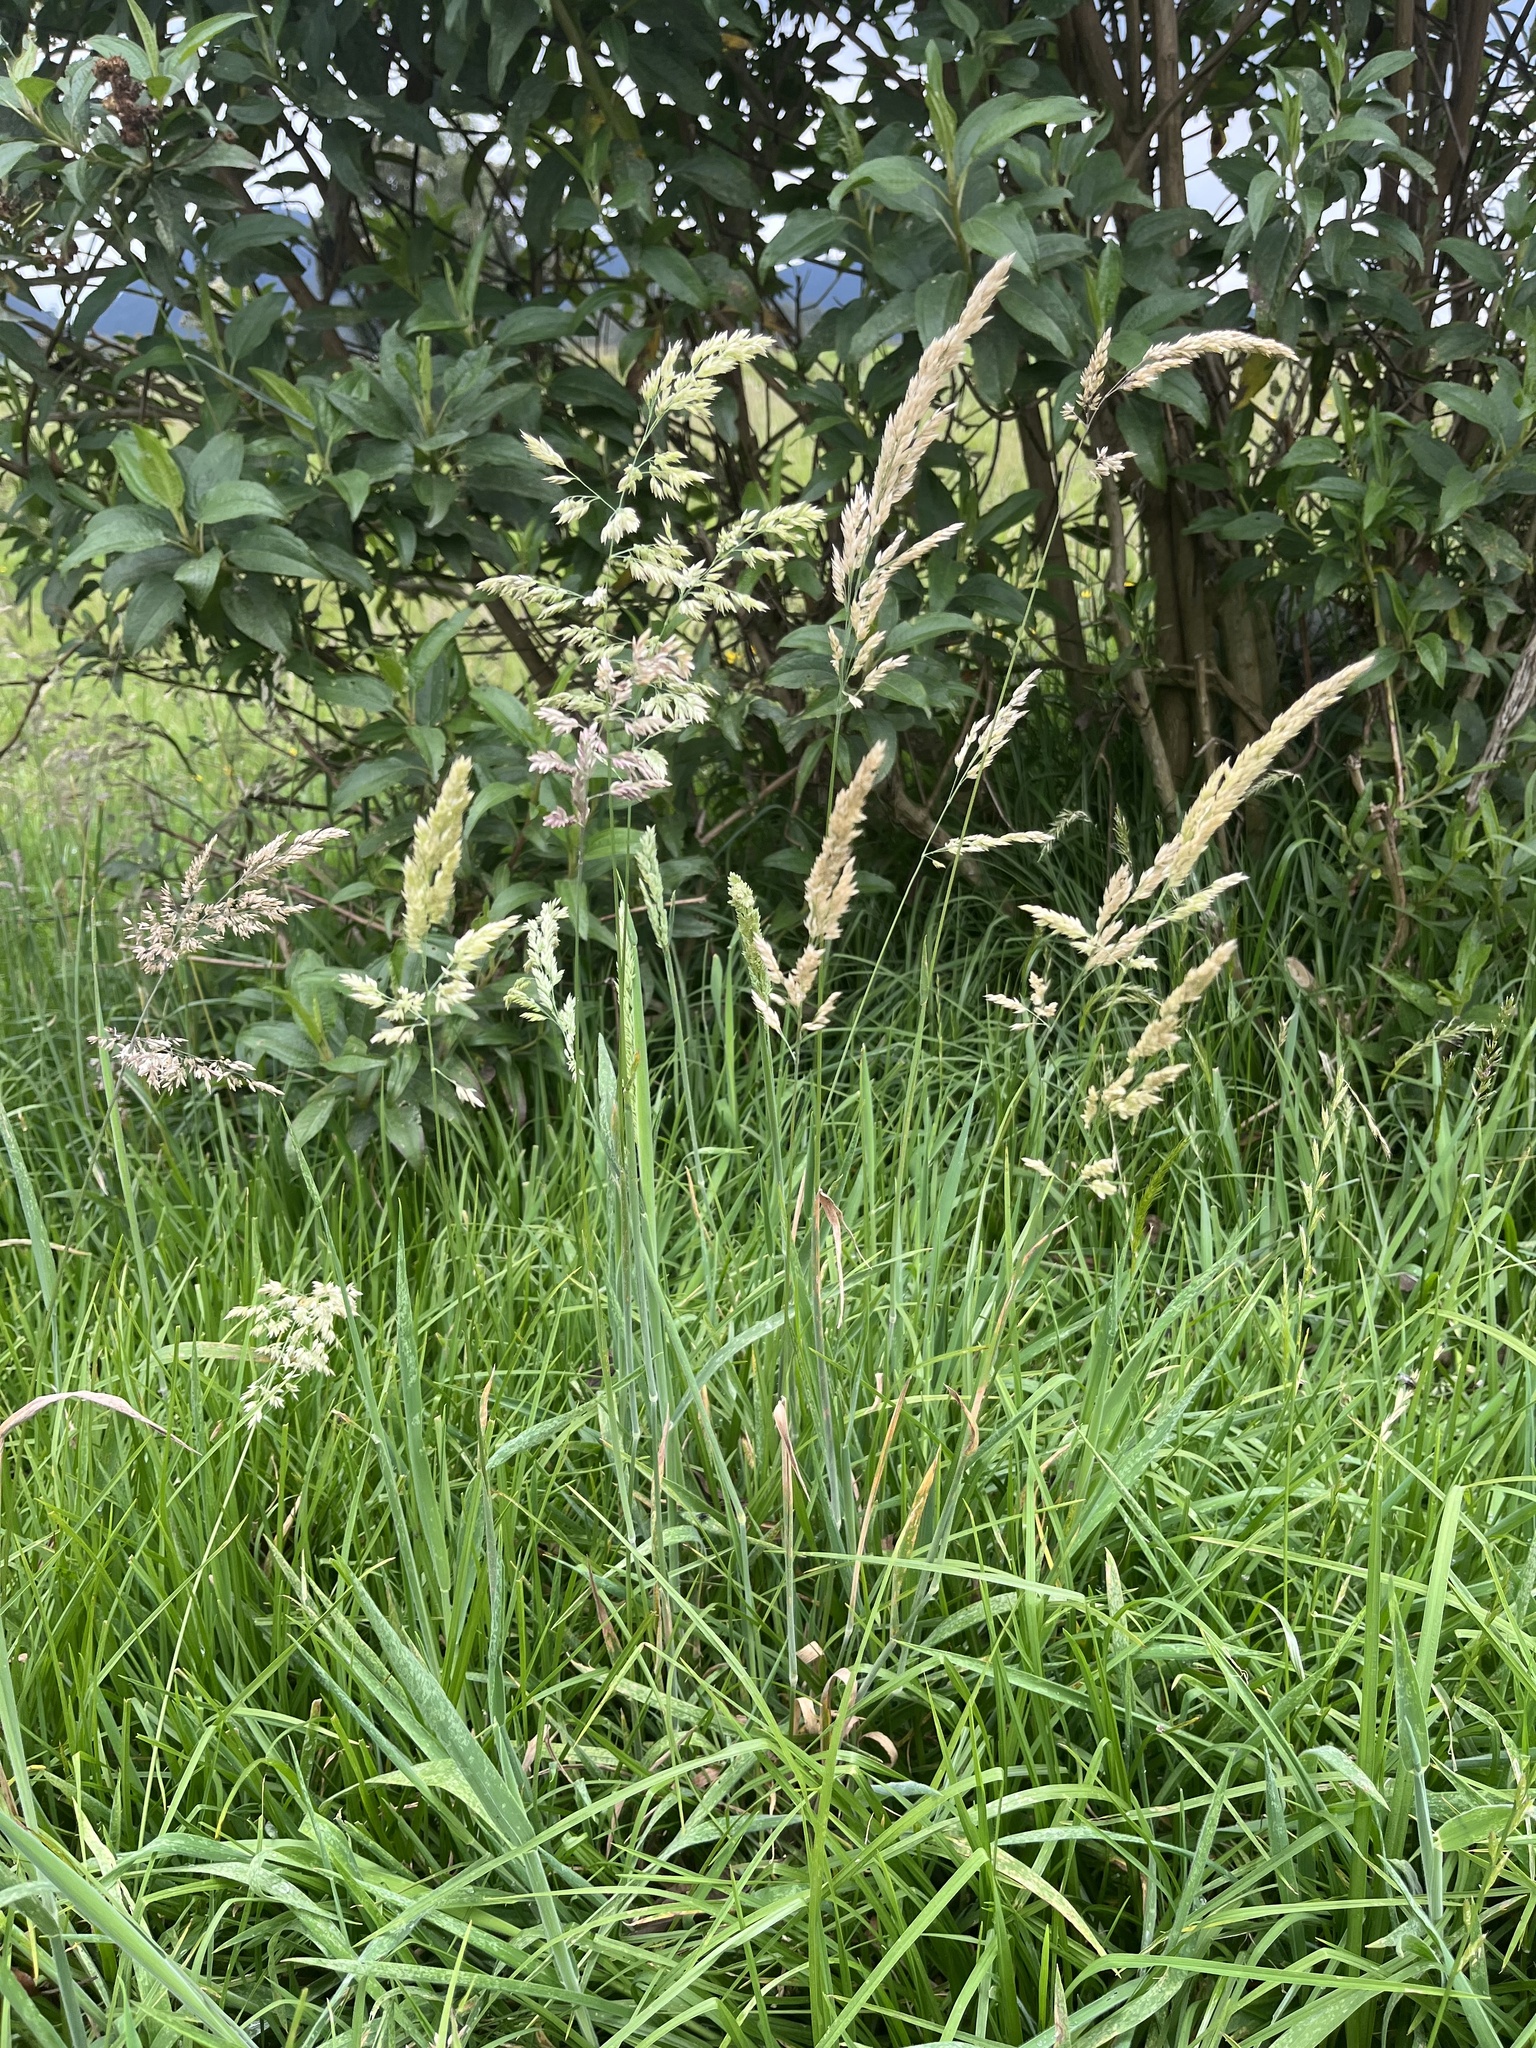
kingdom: Plantae
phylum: Tracheophyta
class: Liliopsida
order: Poales
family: Poaceae
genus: Holcus
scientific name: Holcus lanatus
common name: Yorkshire-fog
